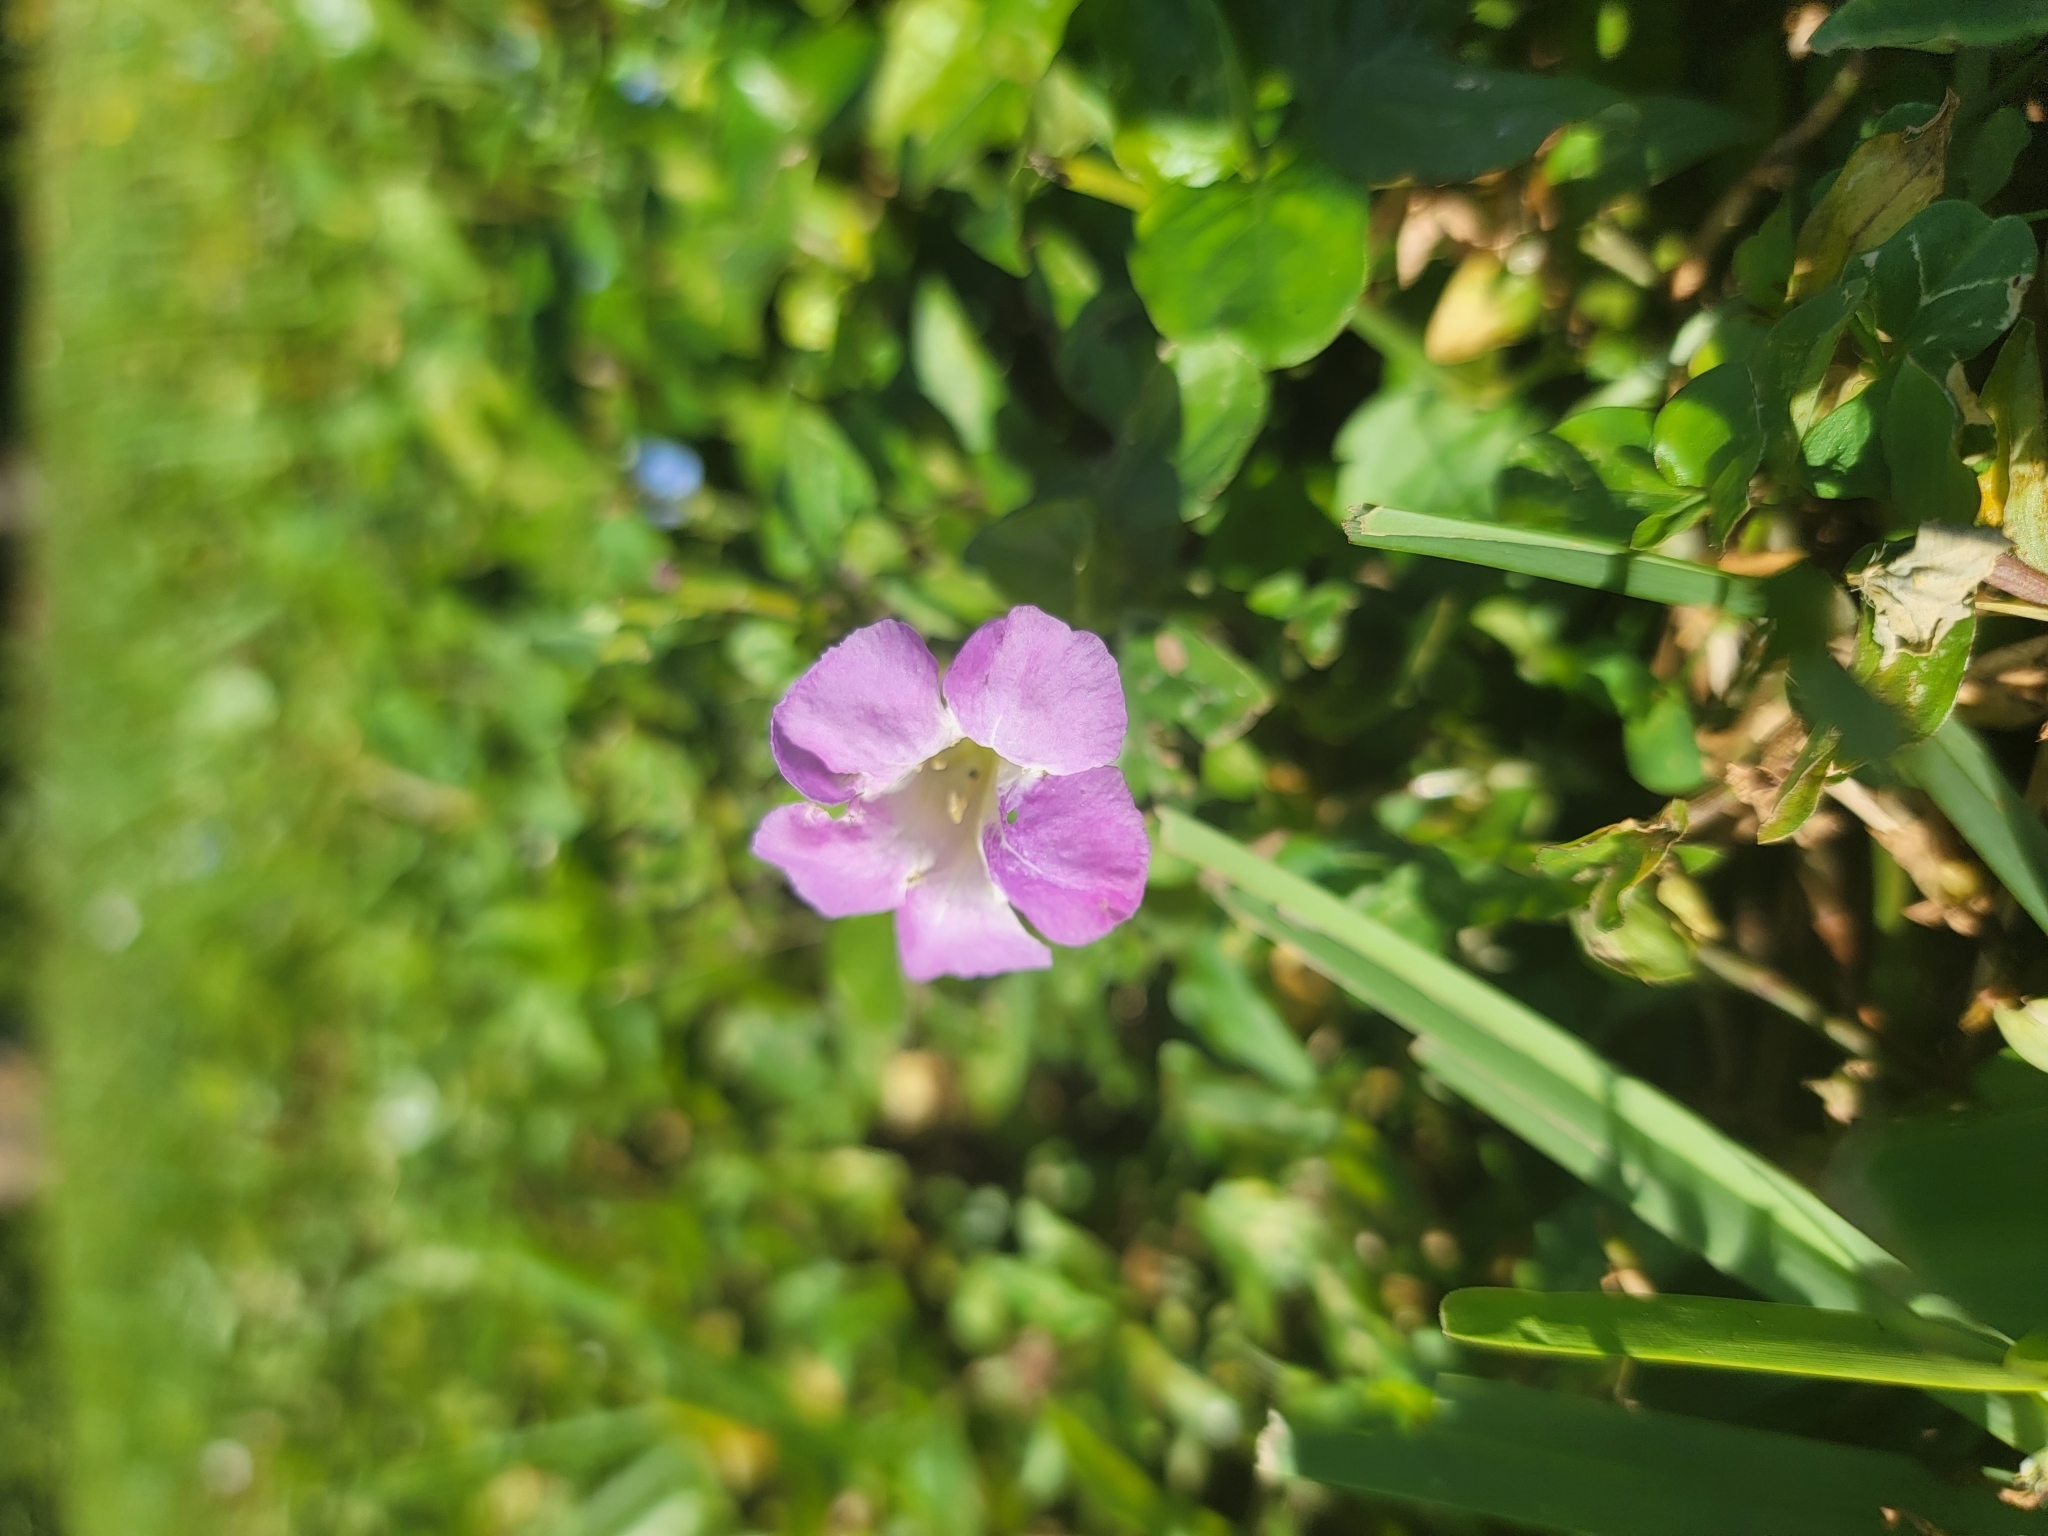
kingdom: Plantae
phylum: Tracheophyta
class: Magnoliopsida
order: Lamiales
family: Acanthaceae
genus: Asystasia
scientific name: Asystasia gangetica
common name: Chinese violet
